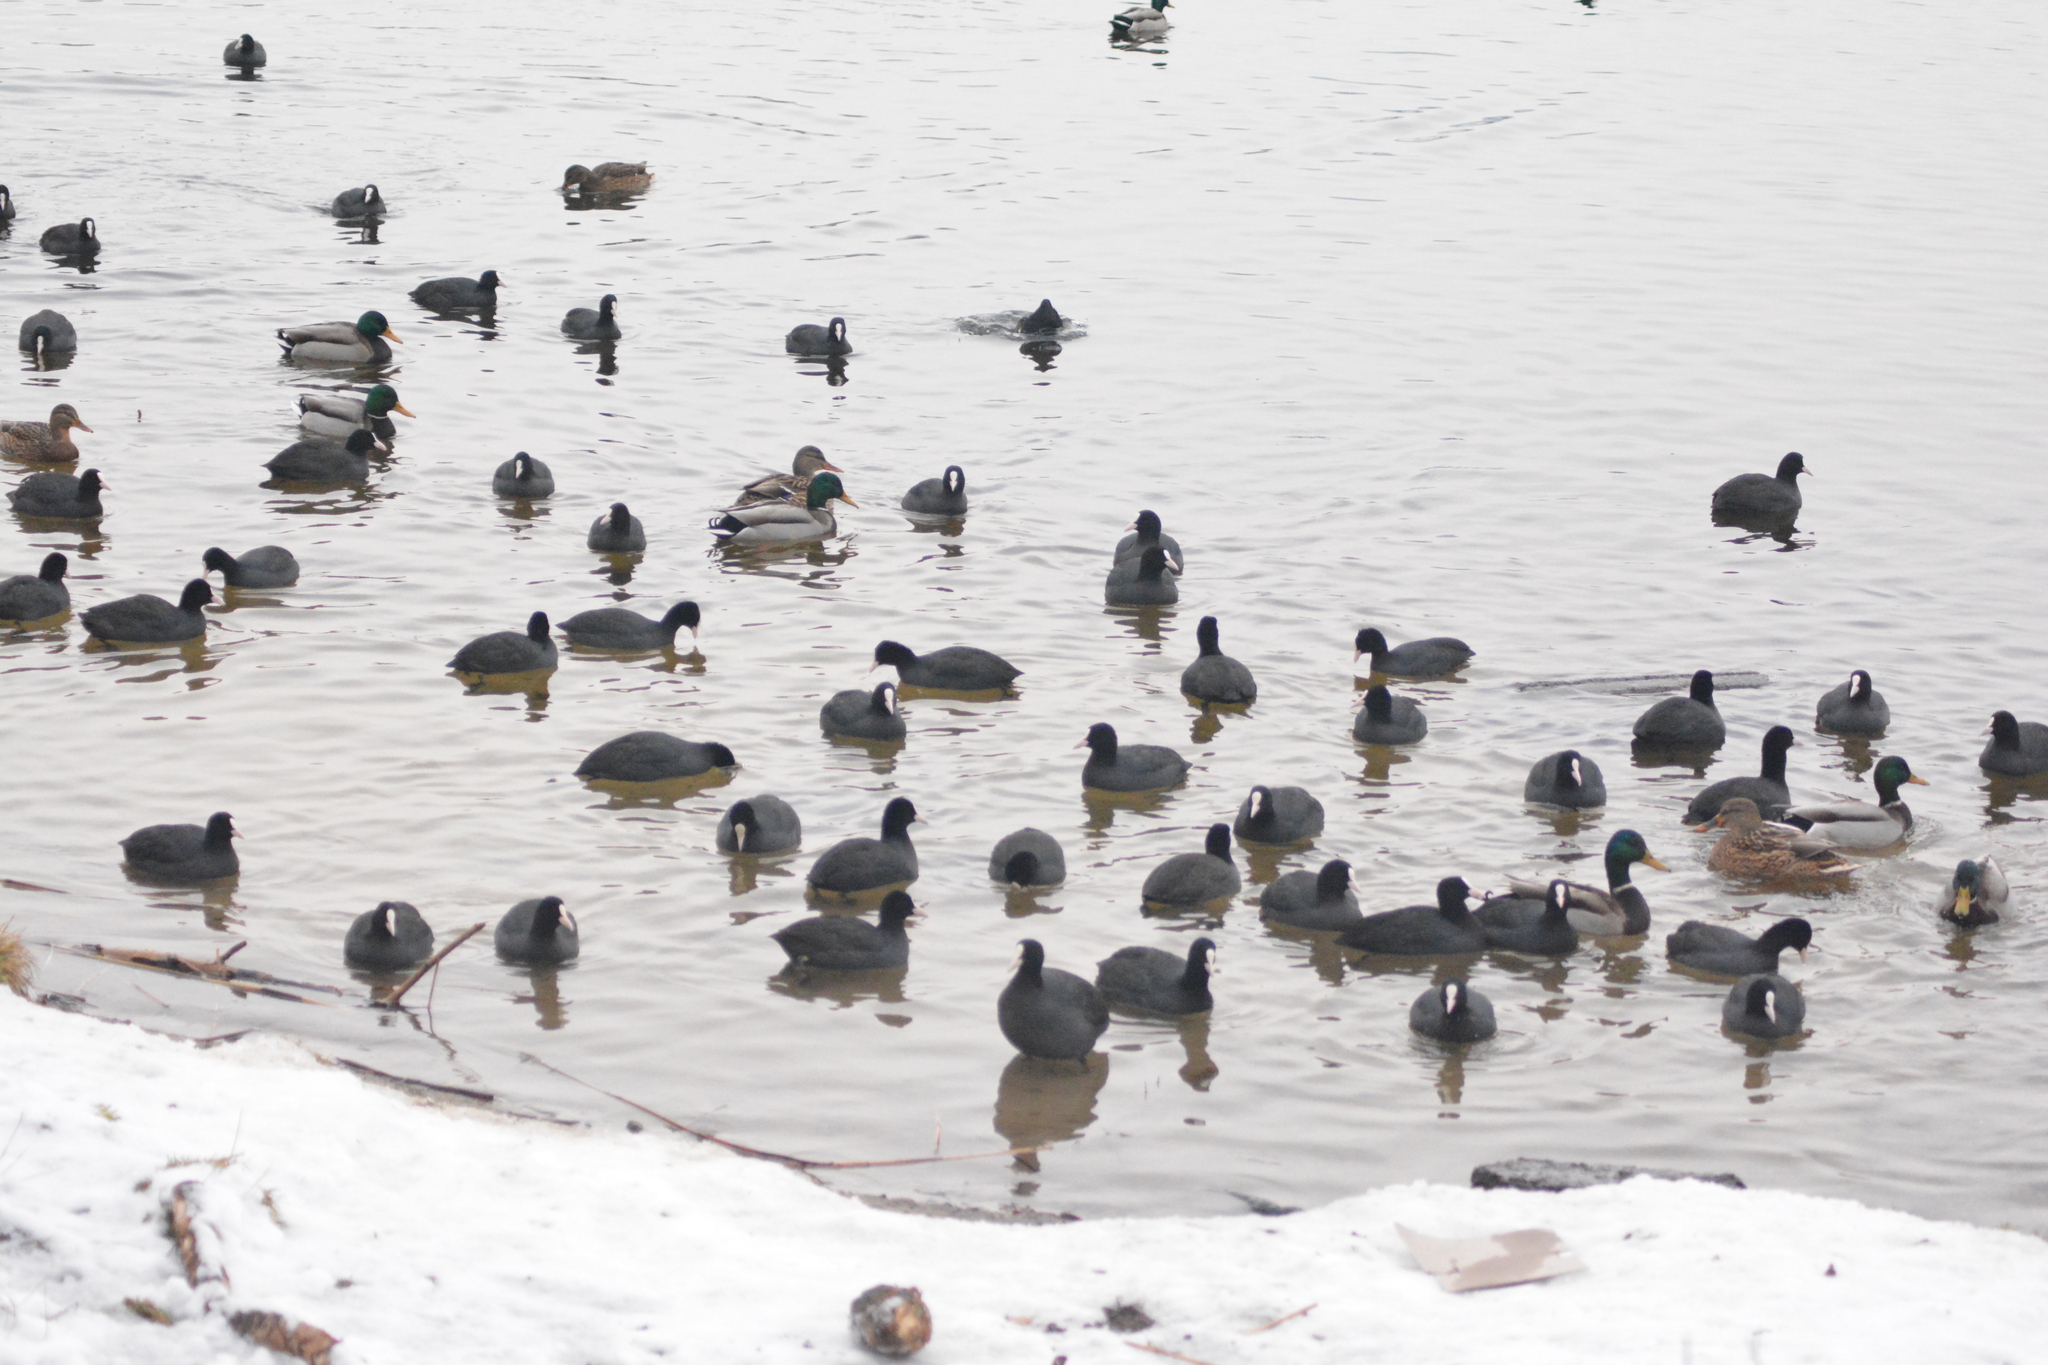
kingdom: Animalia
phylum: Chordata
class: Aves
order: Gruiformes
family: Rallidae
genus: Fulica
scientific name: Fulica atra
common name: Eurasian coot
